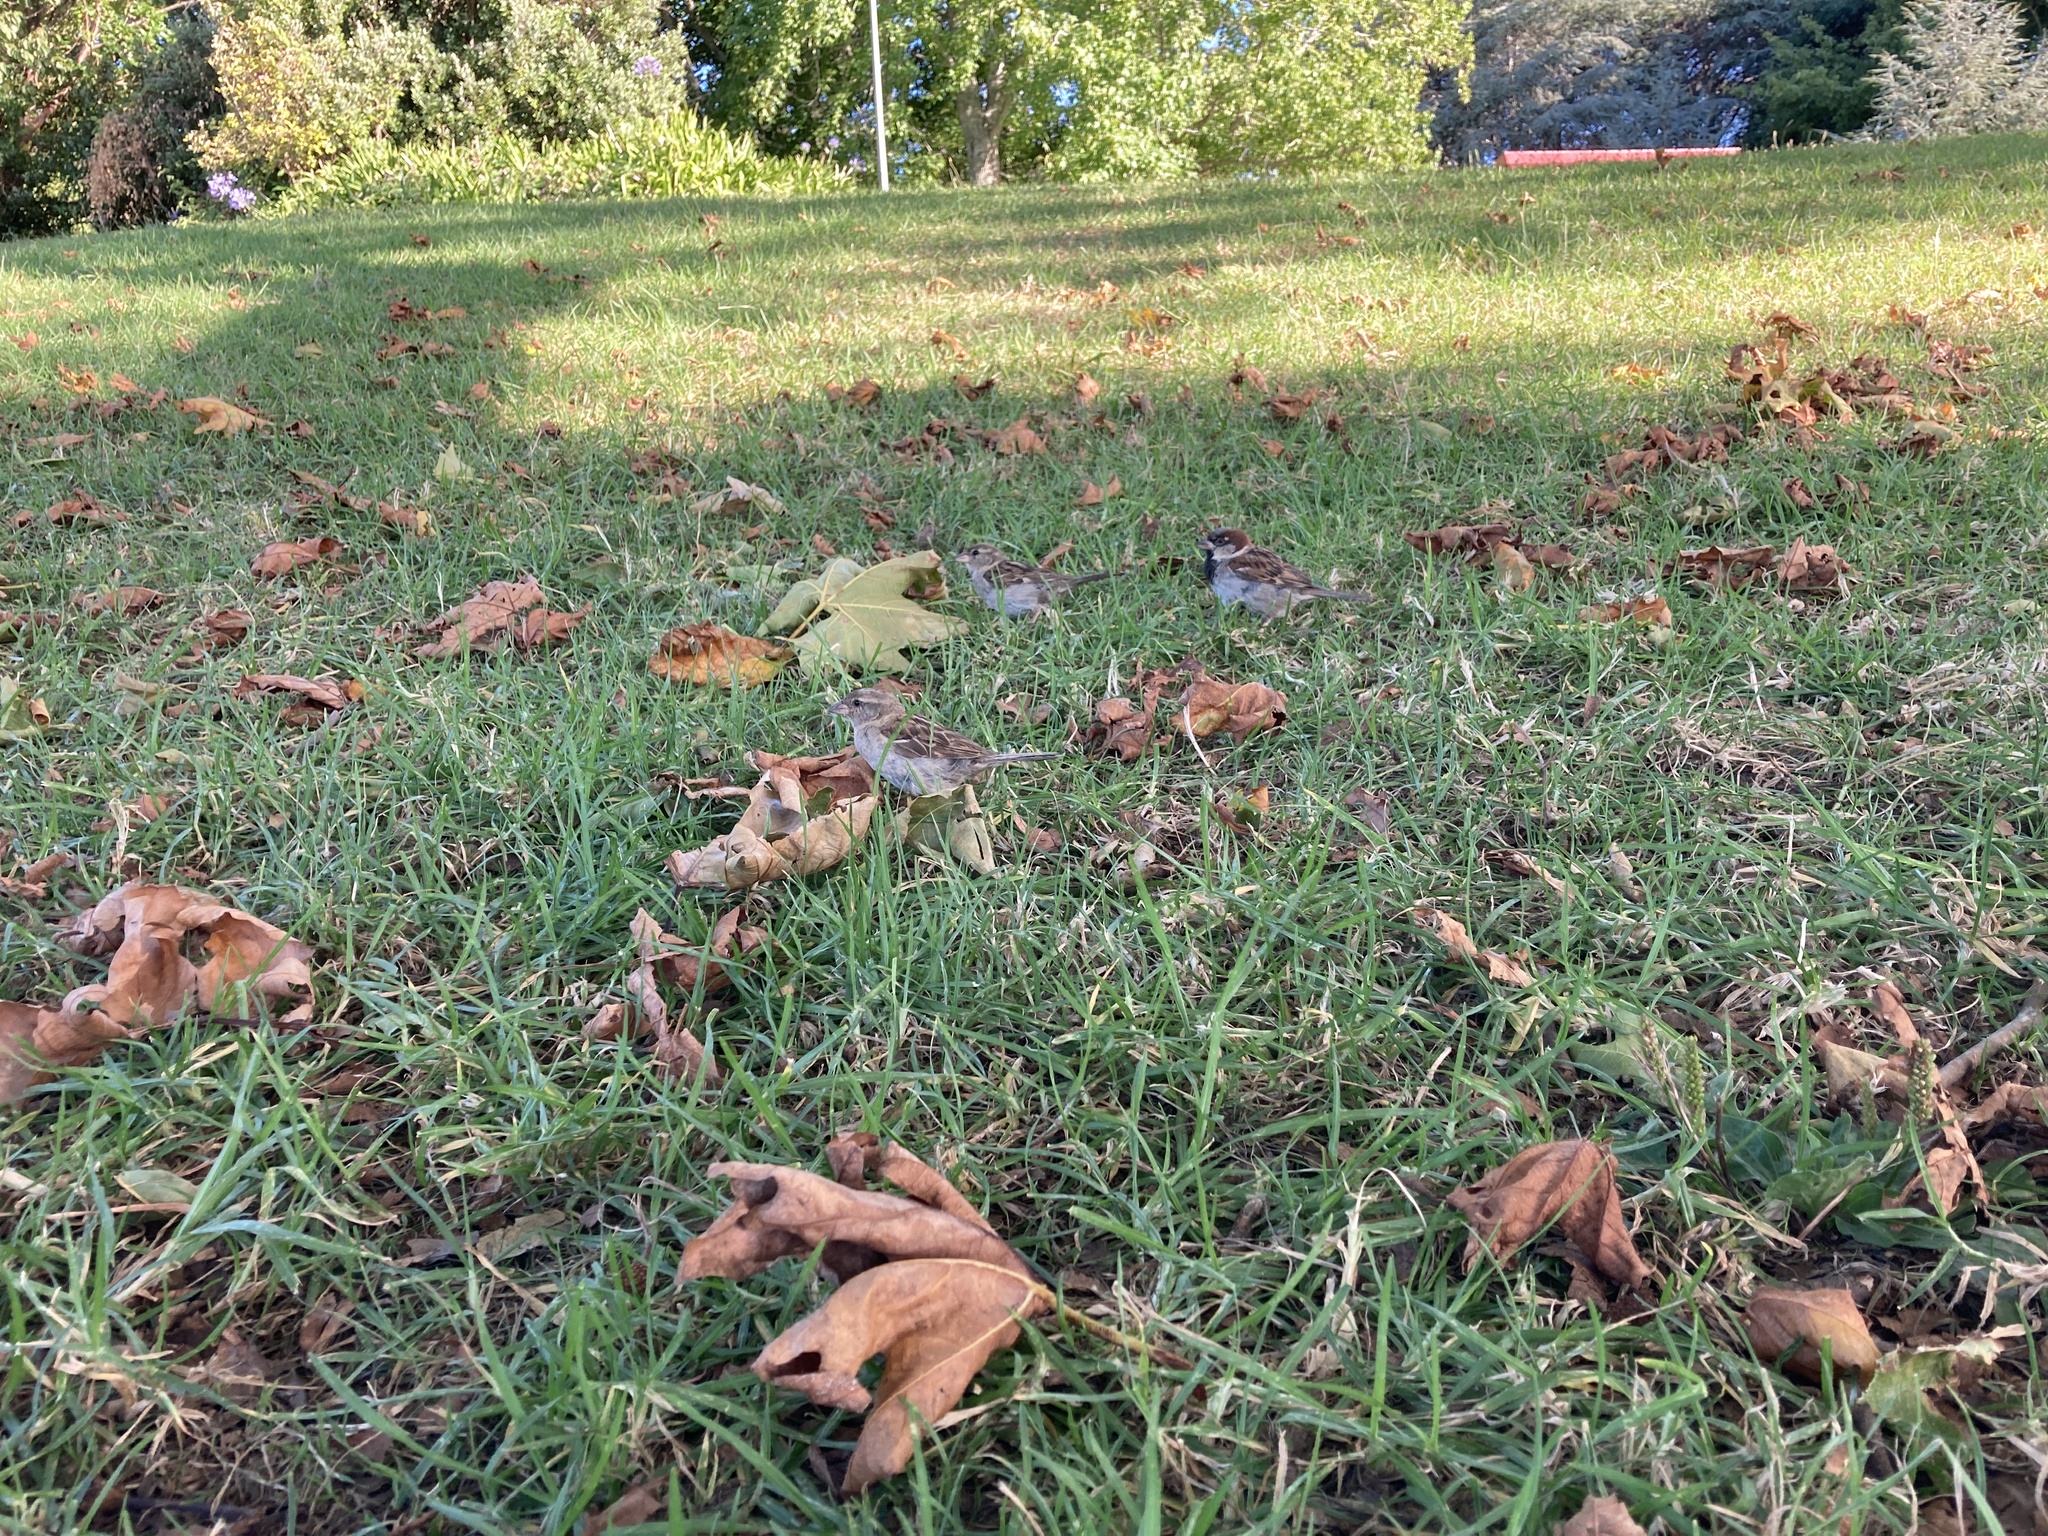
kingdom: Animalia
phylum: Chordata
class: Aves
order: Passeriformes
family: Passeridae
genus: Passer
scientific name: Passer domesticus
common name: House sparrow
